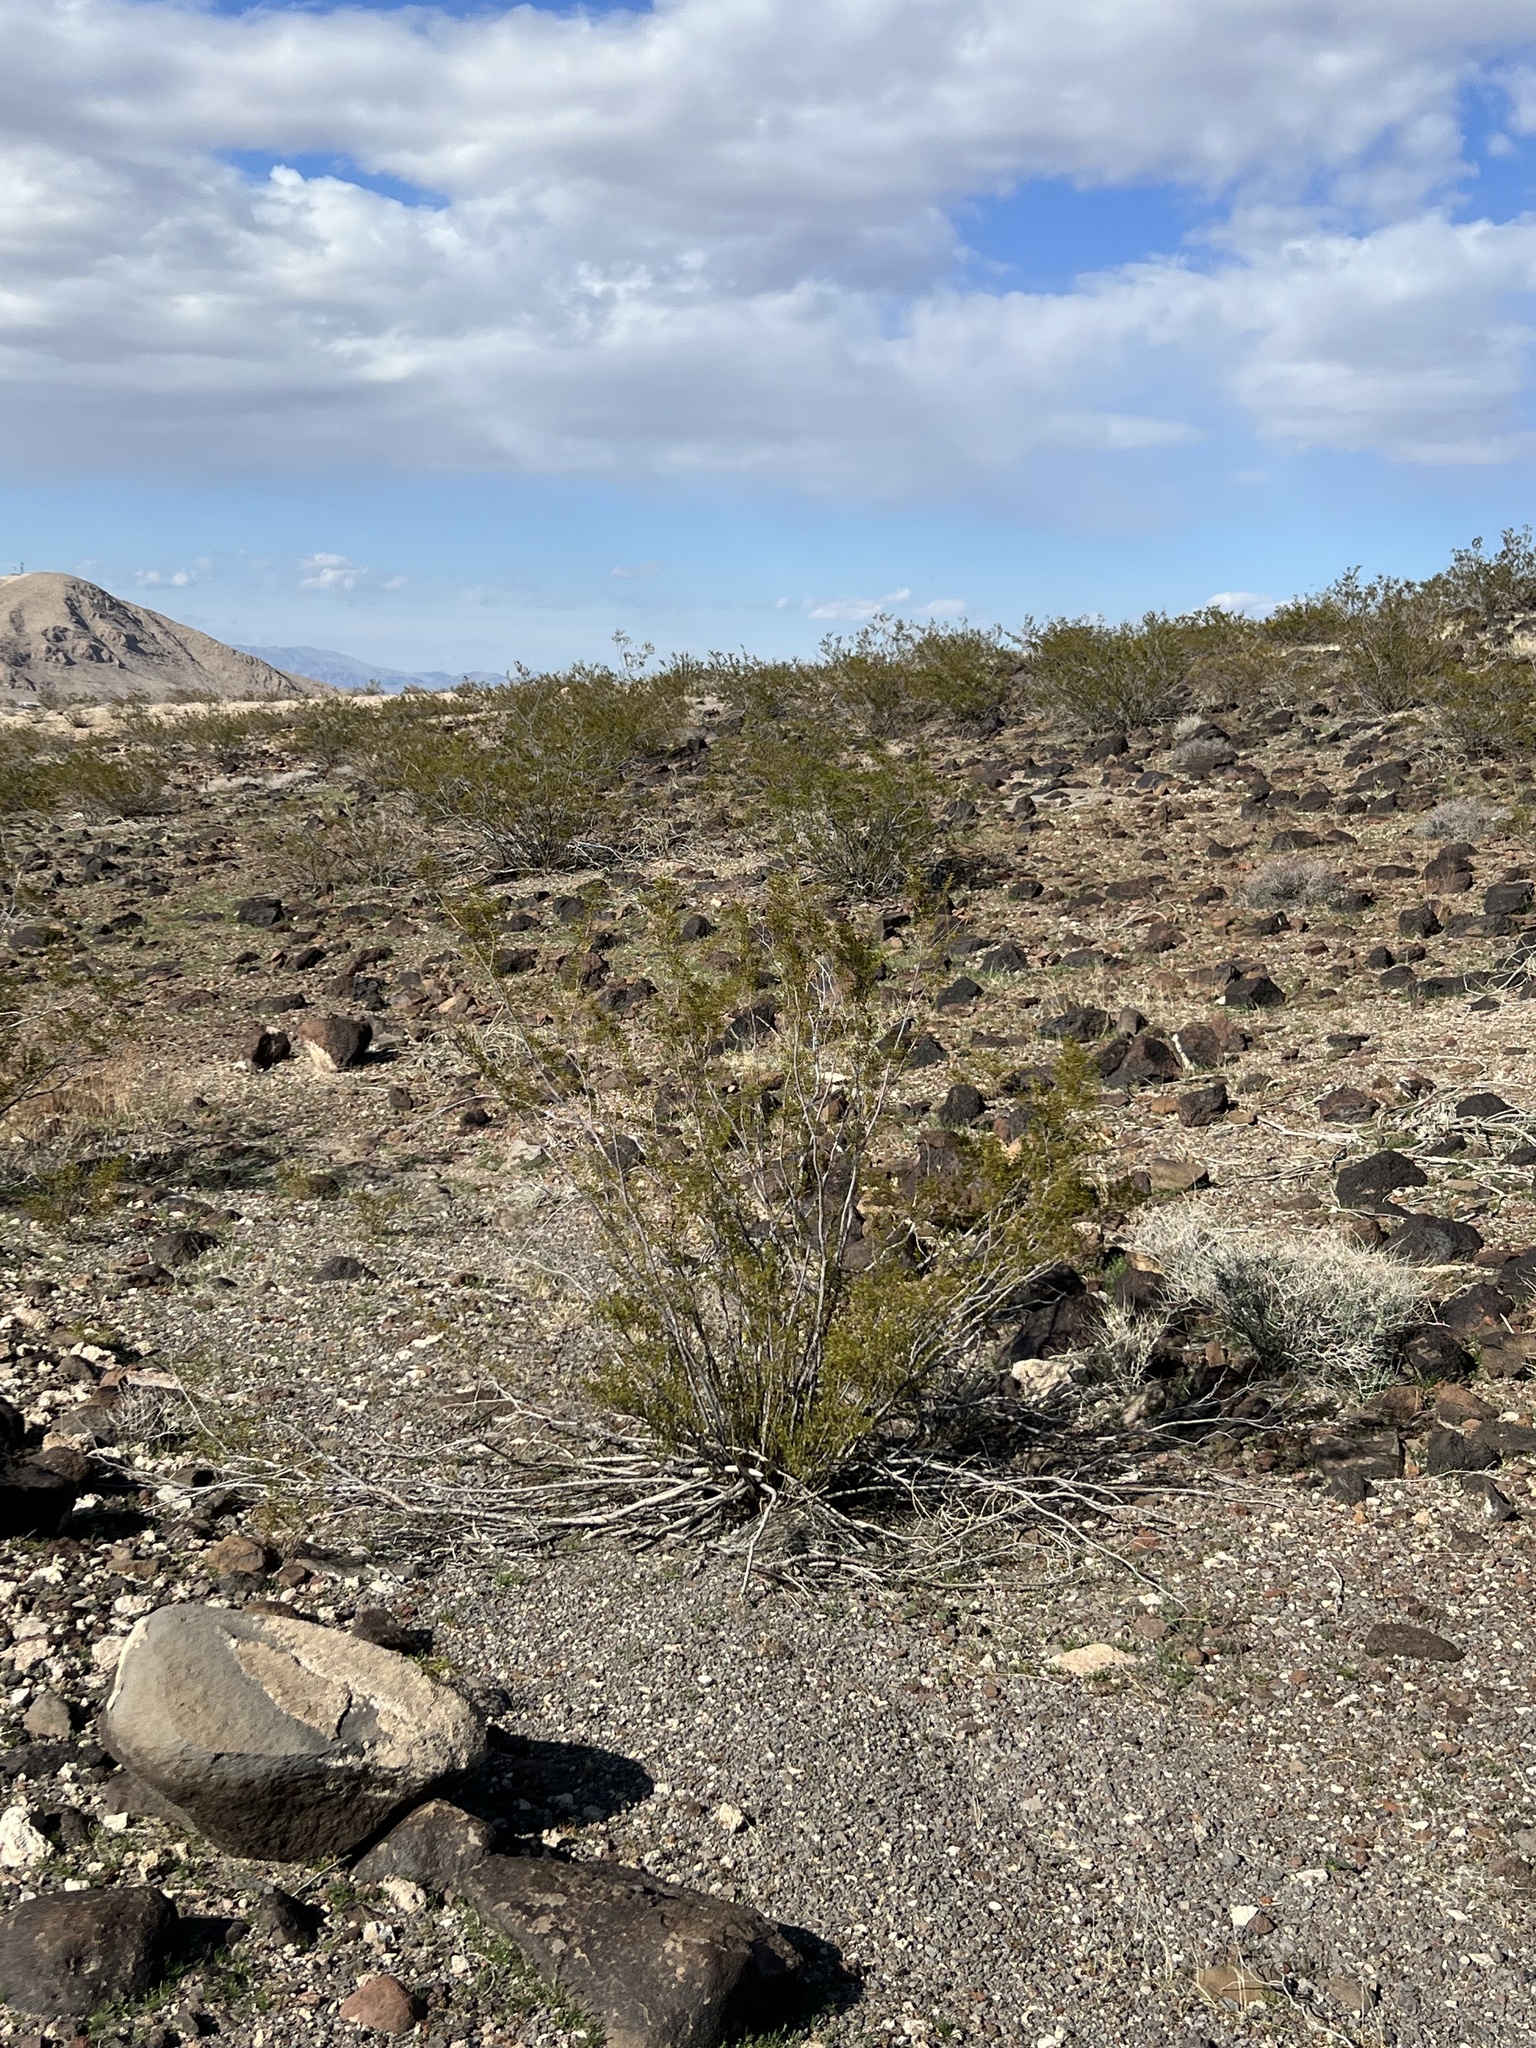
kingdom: Plantae
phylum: Tracheophyta
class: Magnoliopsida
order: Zygophyllales
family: Zygophyllaceae
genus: Larrea
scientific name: Larrea tridentata
